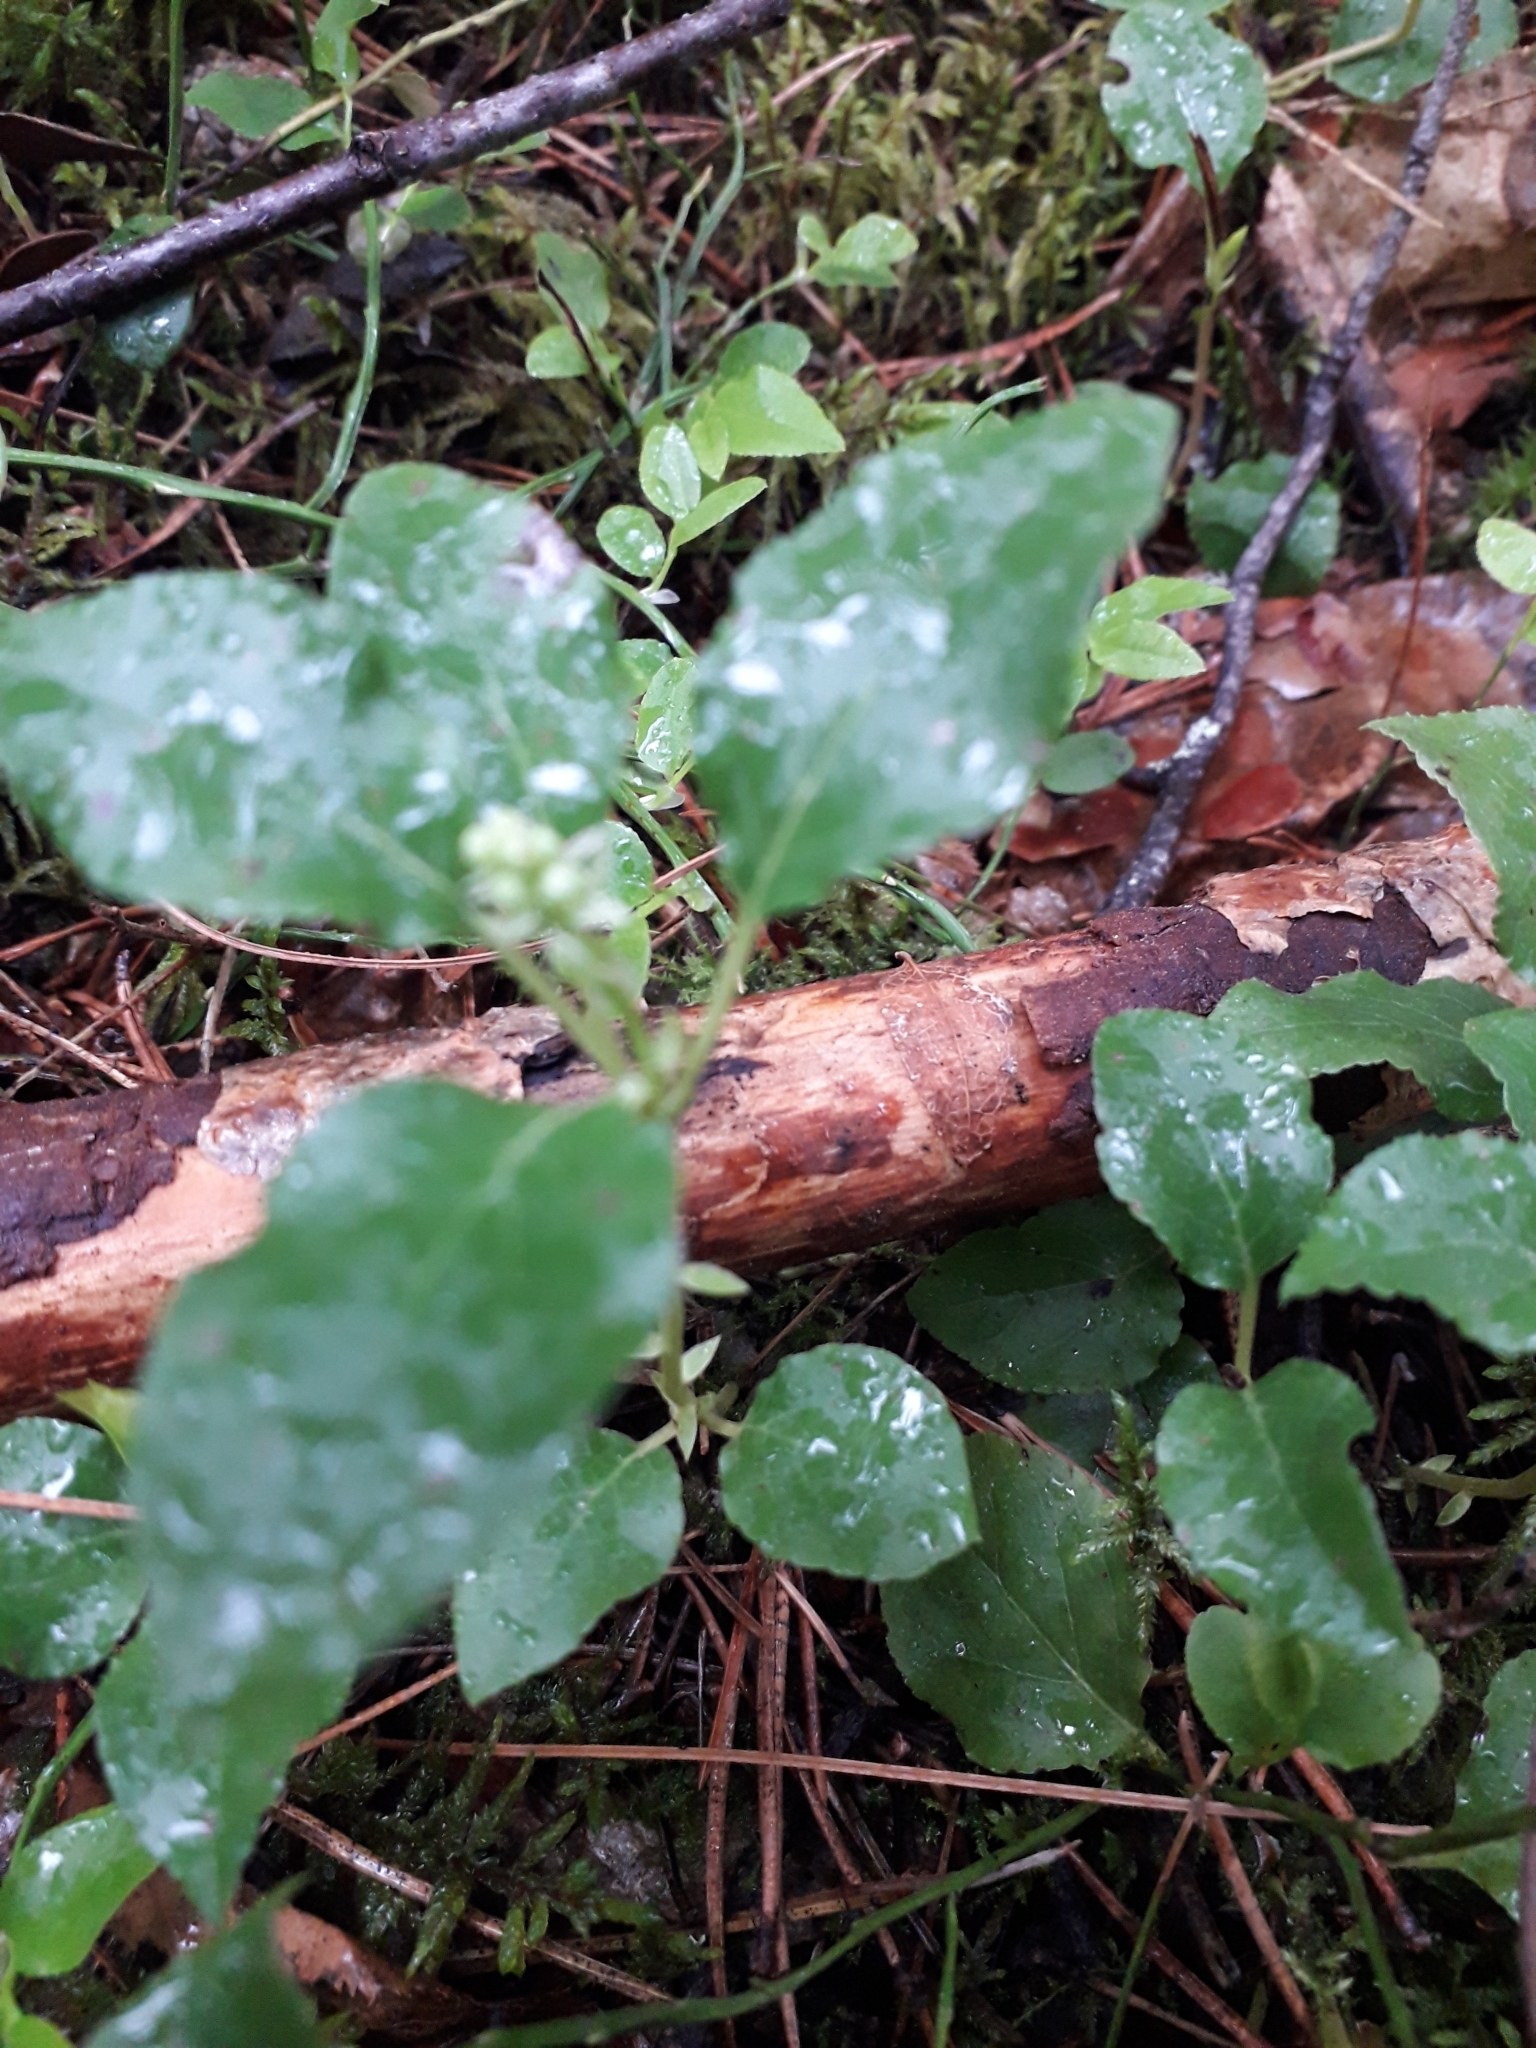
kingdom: Plantae
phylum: Tracheophyta
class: Magnoliopsida
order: Ericales
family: Ericaceae
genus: Orthilia
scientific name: Orthilia secunda
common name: One-sided orthilia
